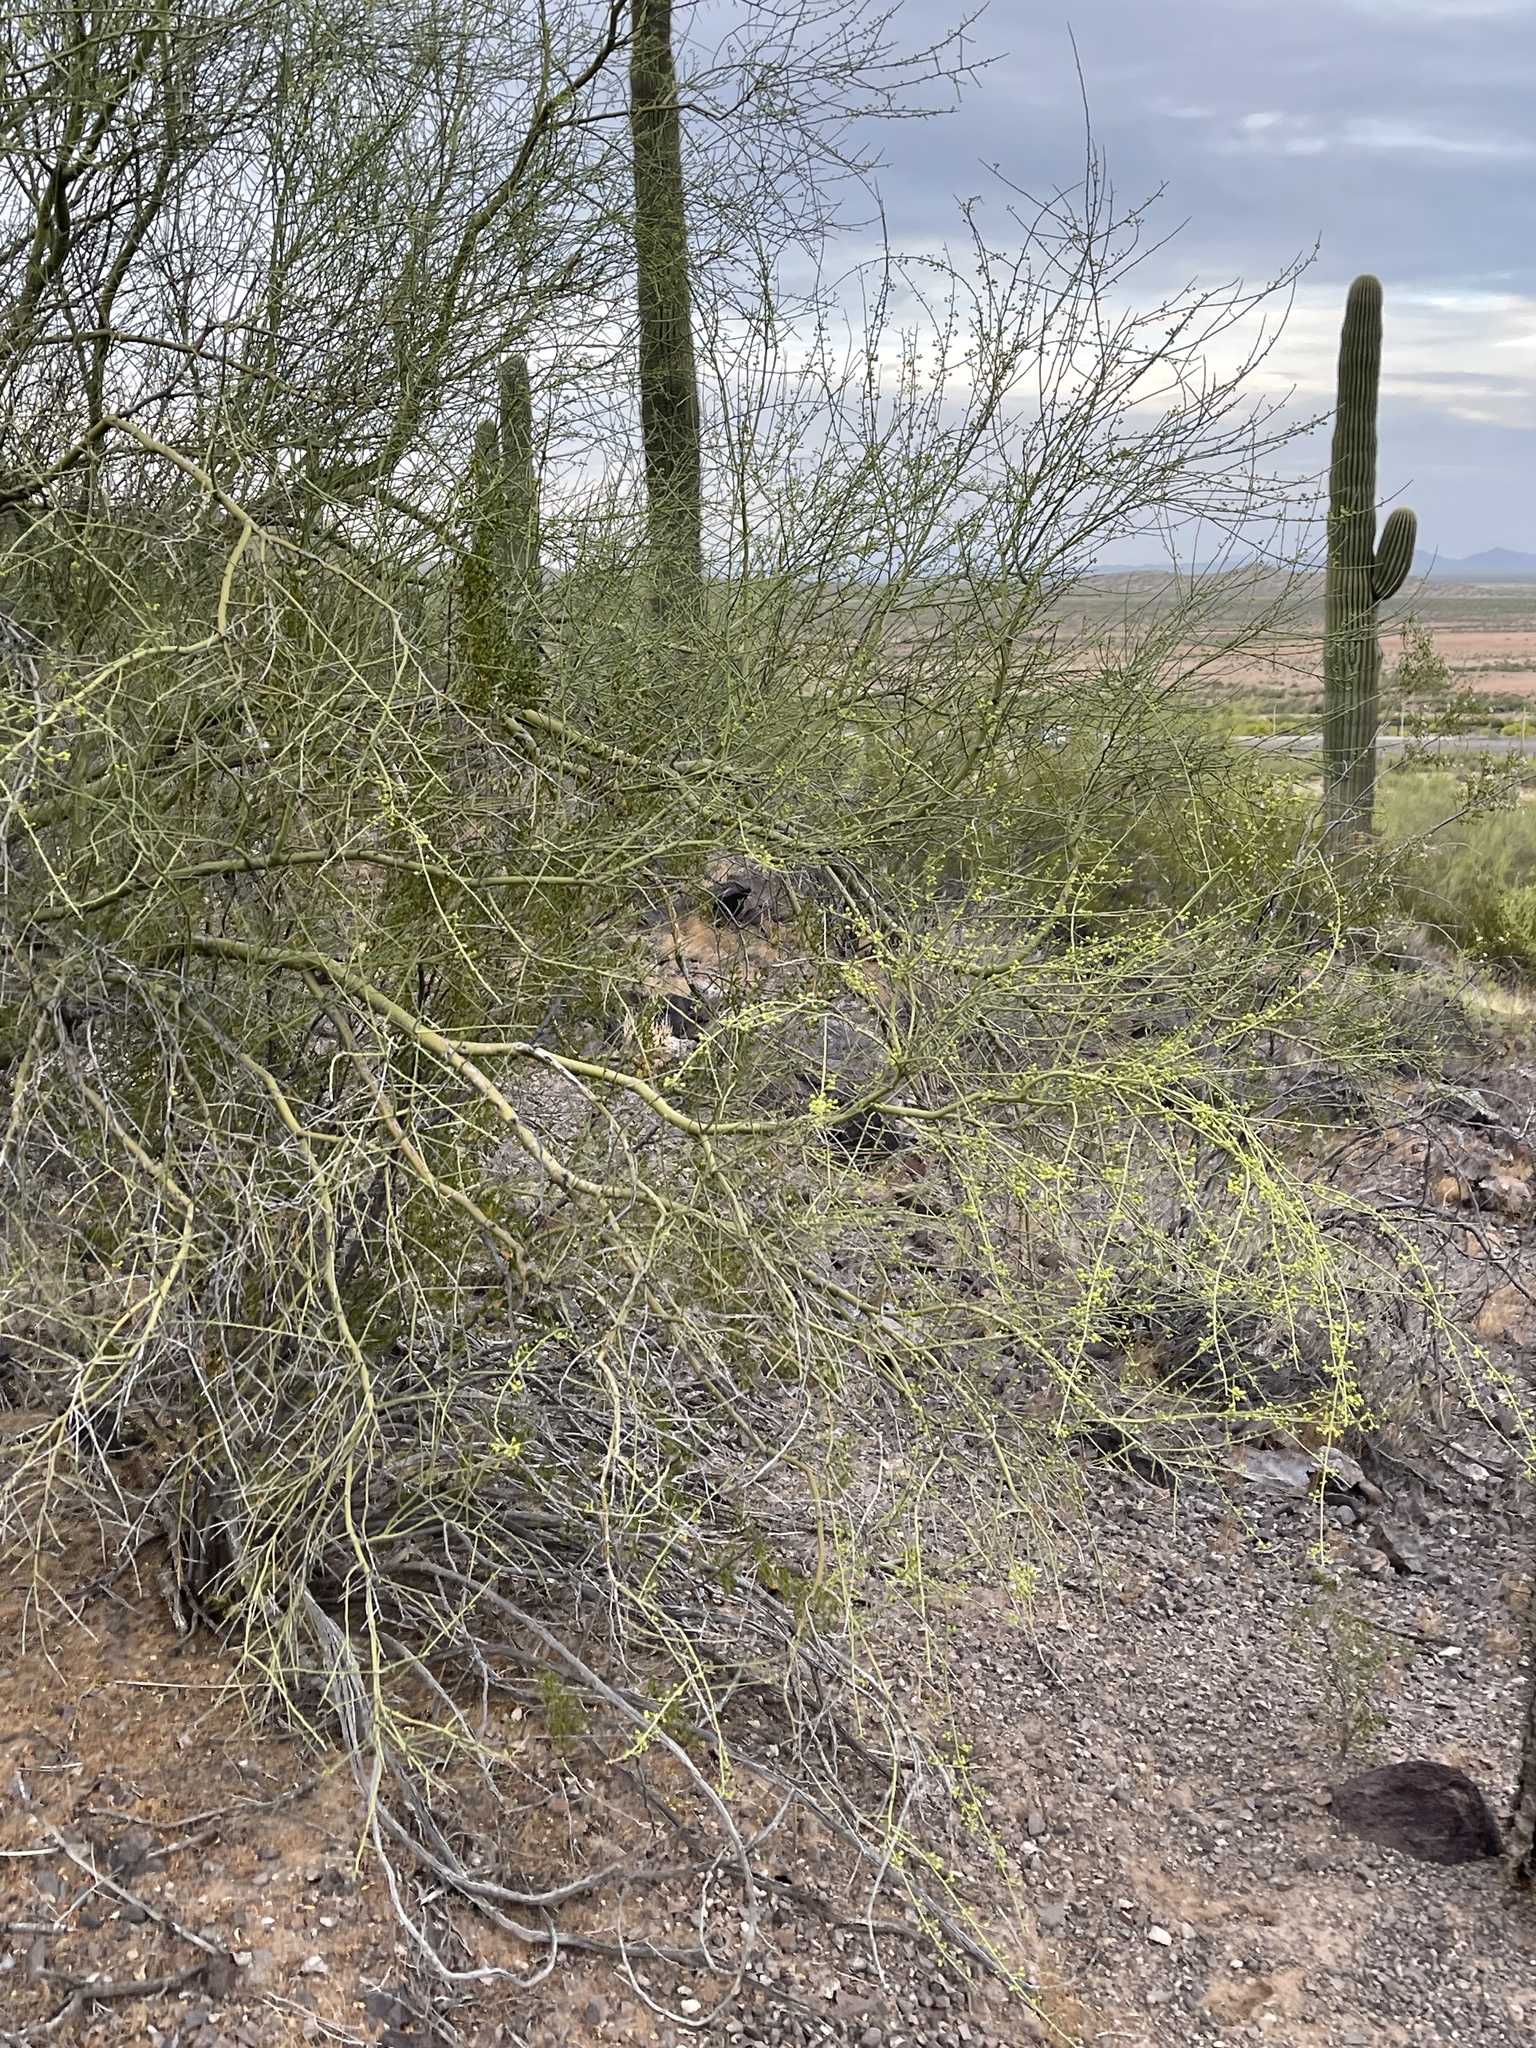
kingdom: Plantae
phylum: Tracheophyta
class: Magnoliopsida
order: Fabales
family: Fabaceae
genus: Parkinsonia
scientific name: Parkinsonia microphylla
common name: Yellow paloverde
